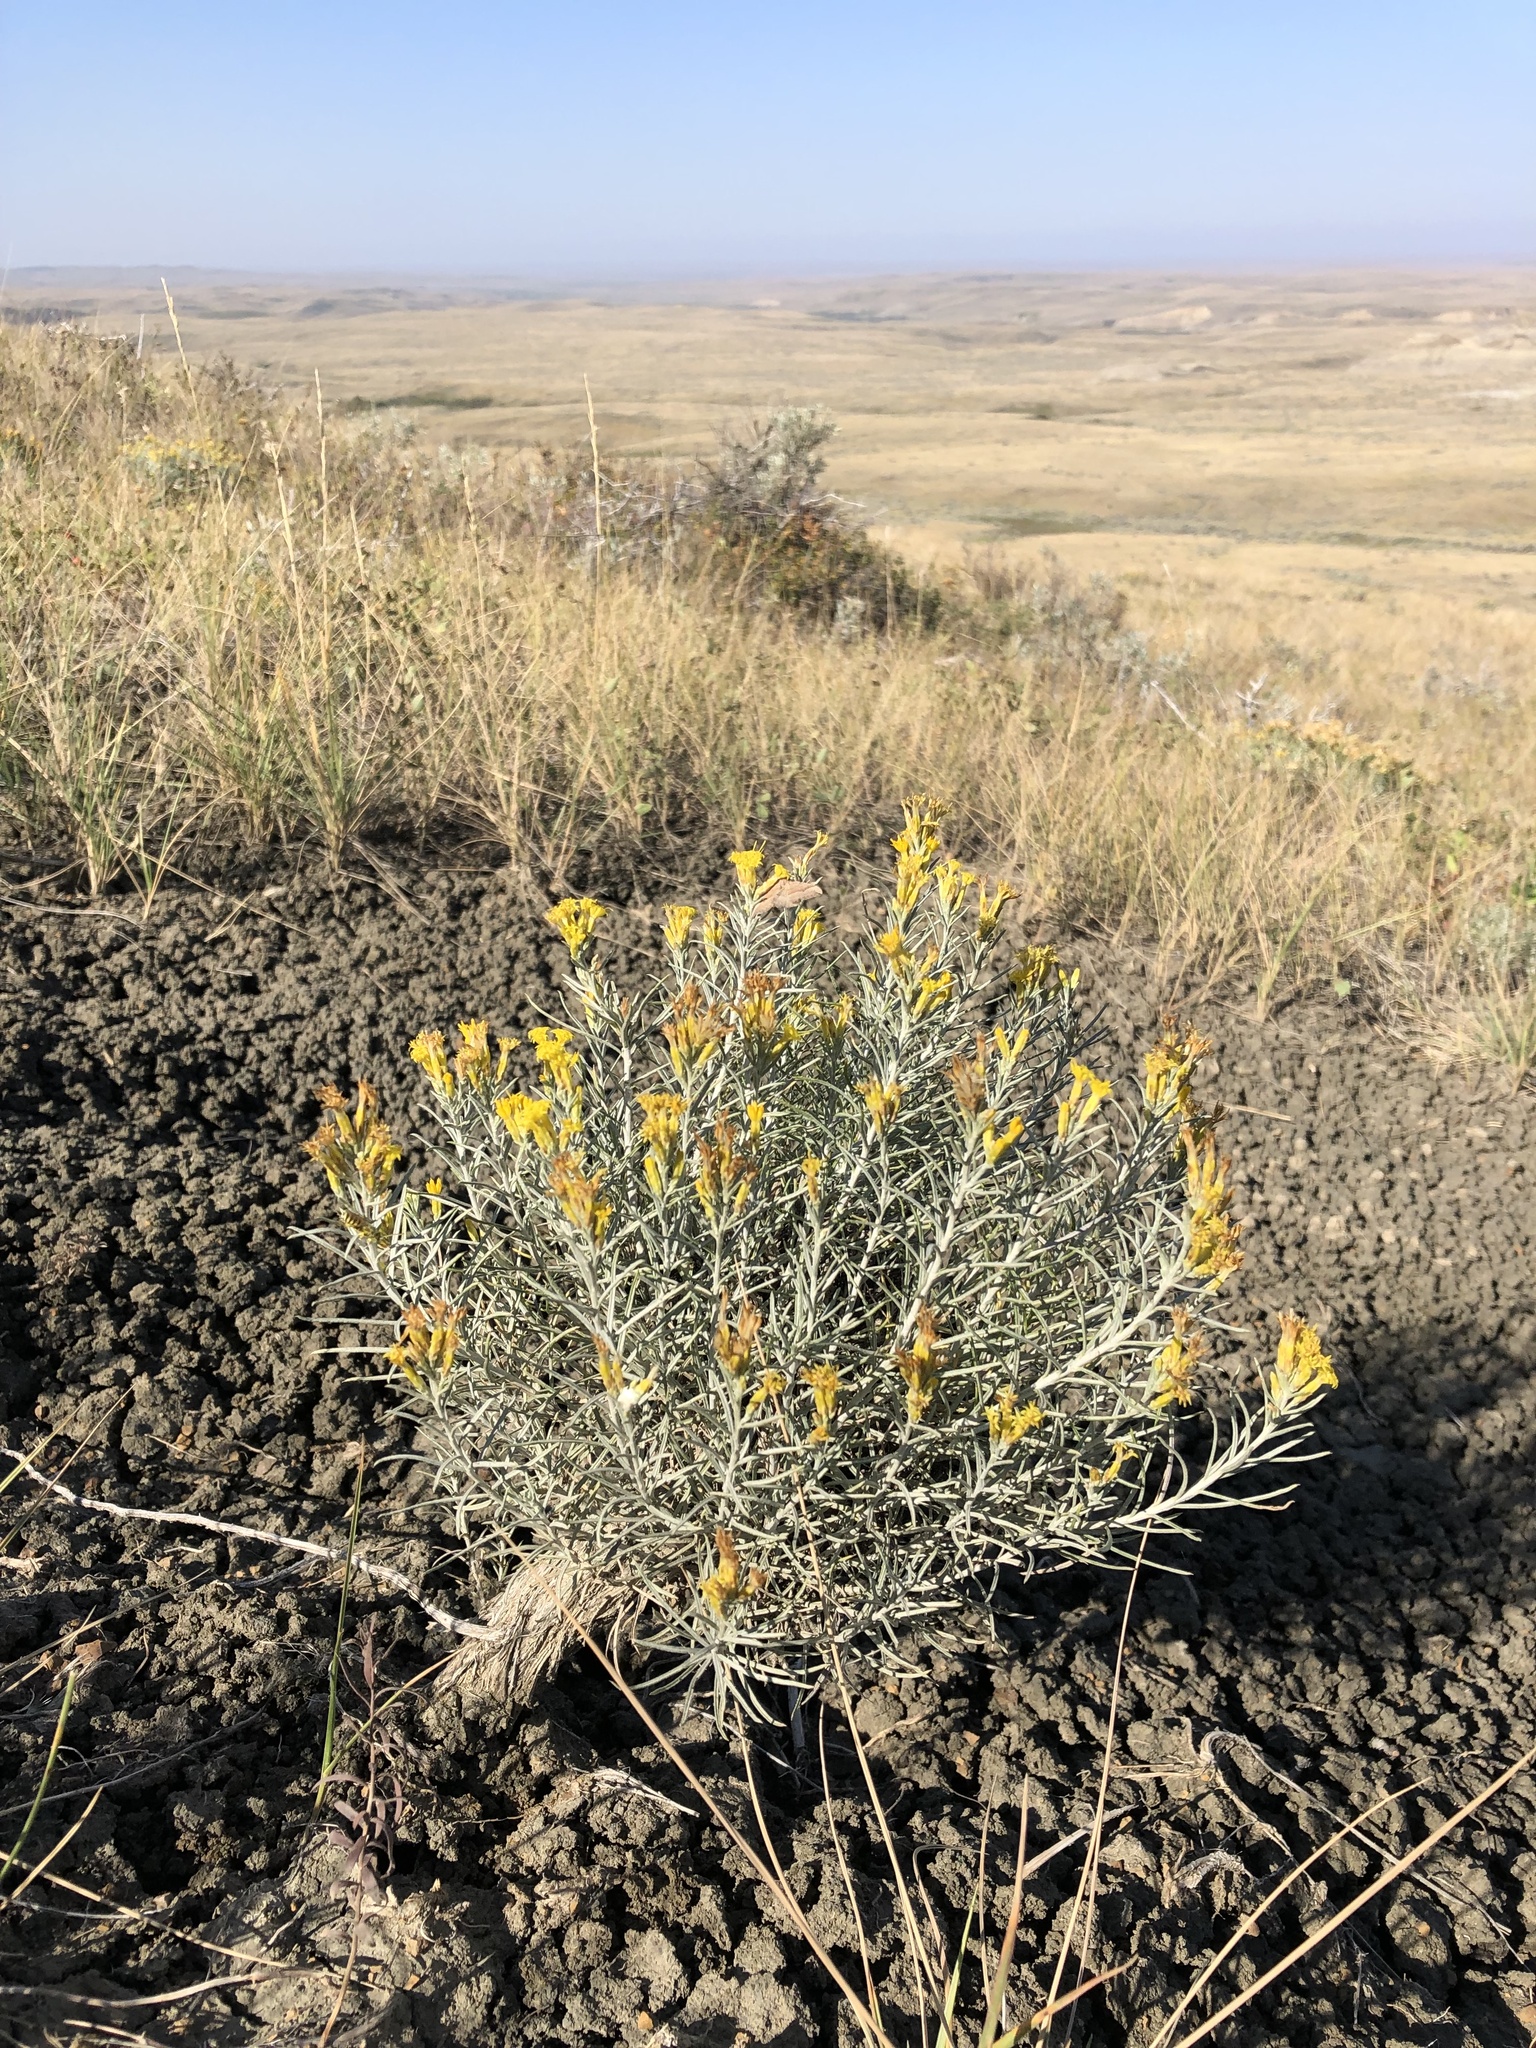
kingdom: Plantae
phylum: Tracheophyta
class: Magnoliopsida
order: Asterales
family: Asteraceae
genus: Ericameria
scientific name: Ericameria nauseosa
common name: Rubber rabbitbrush
